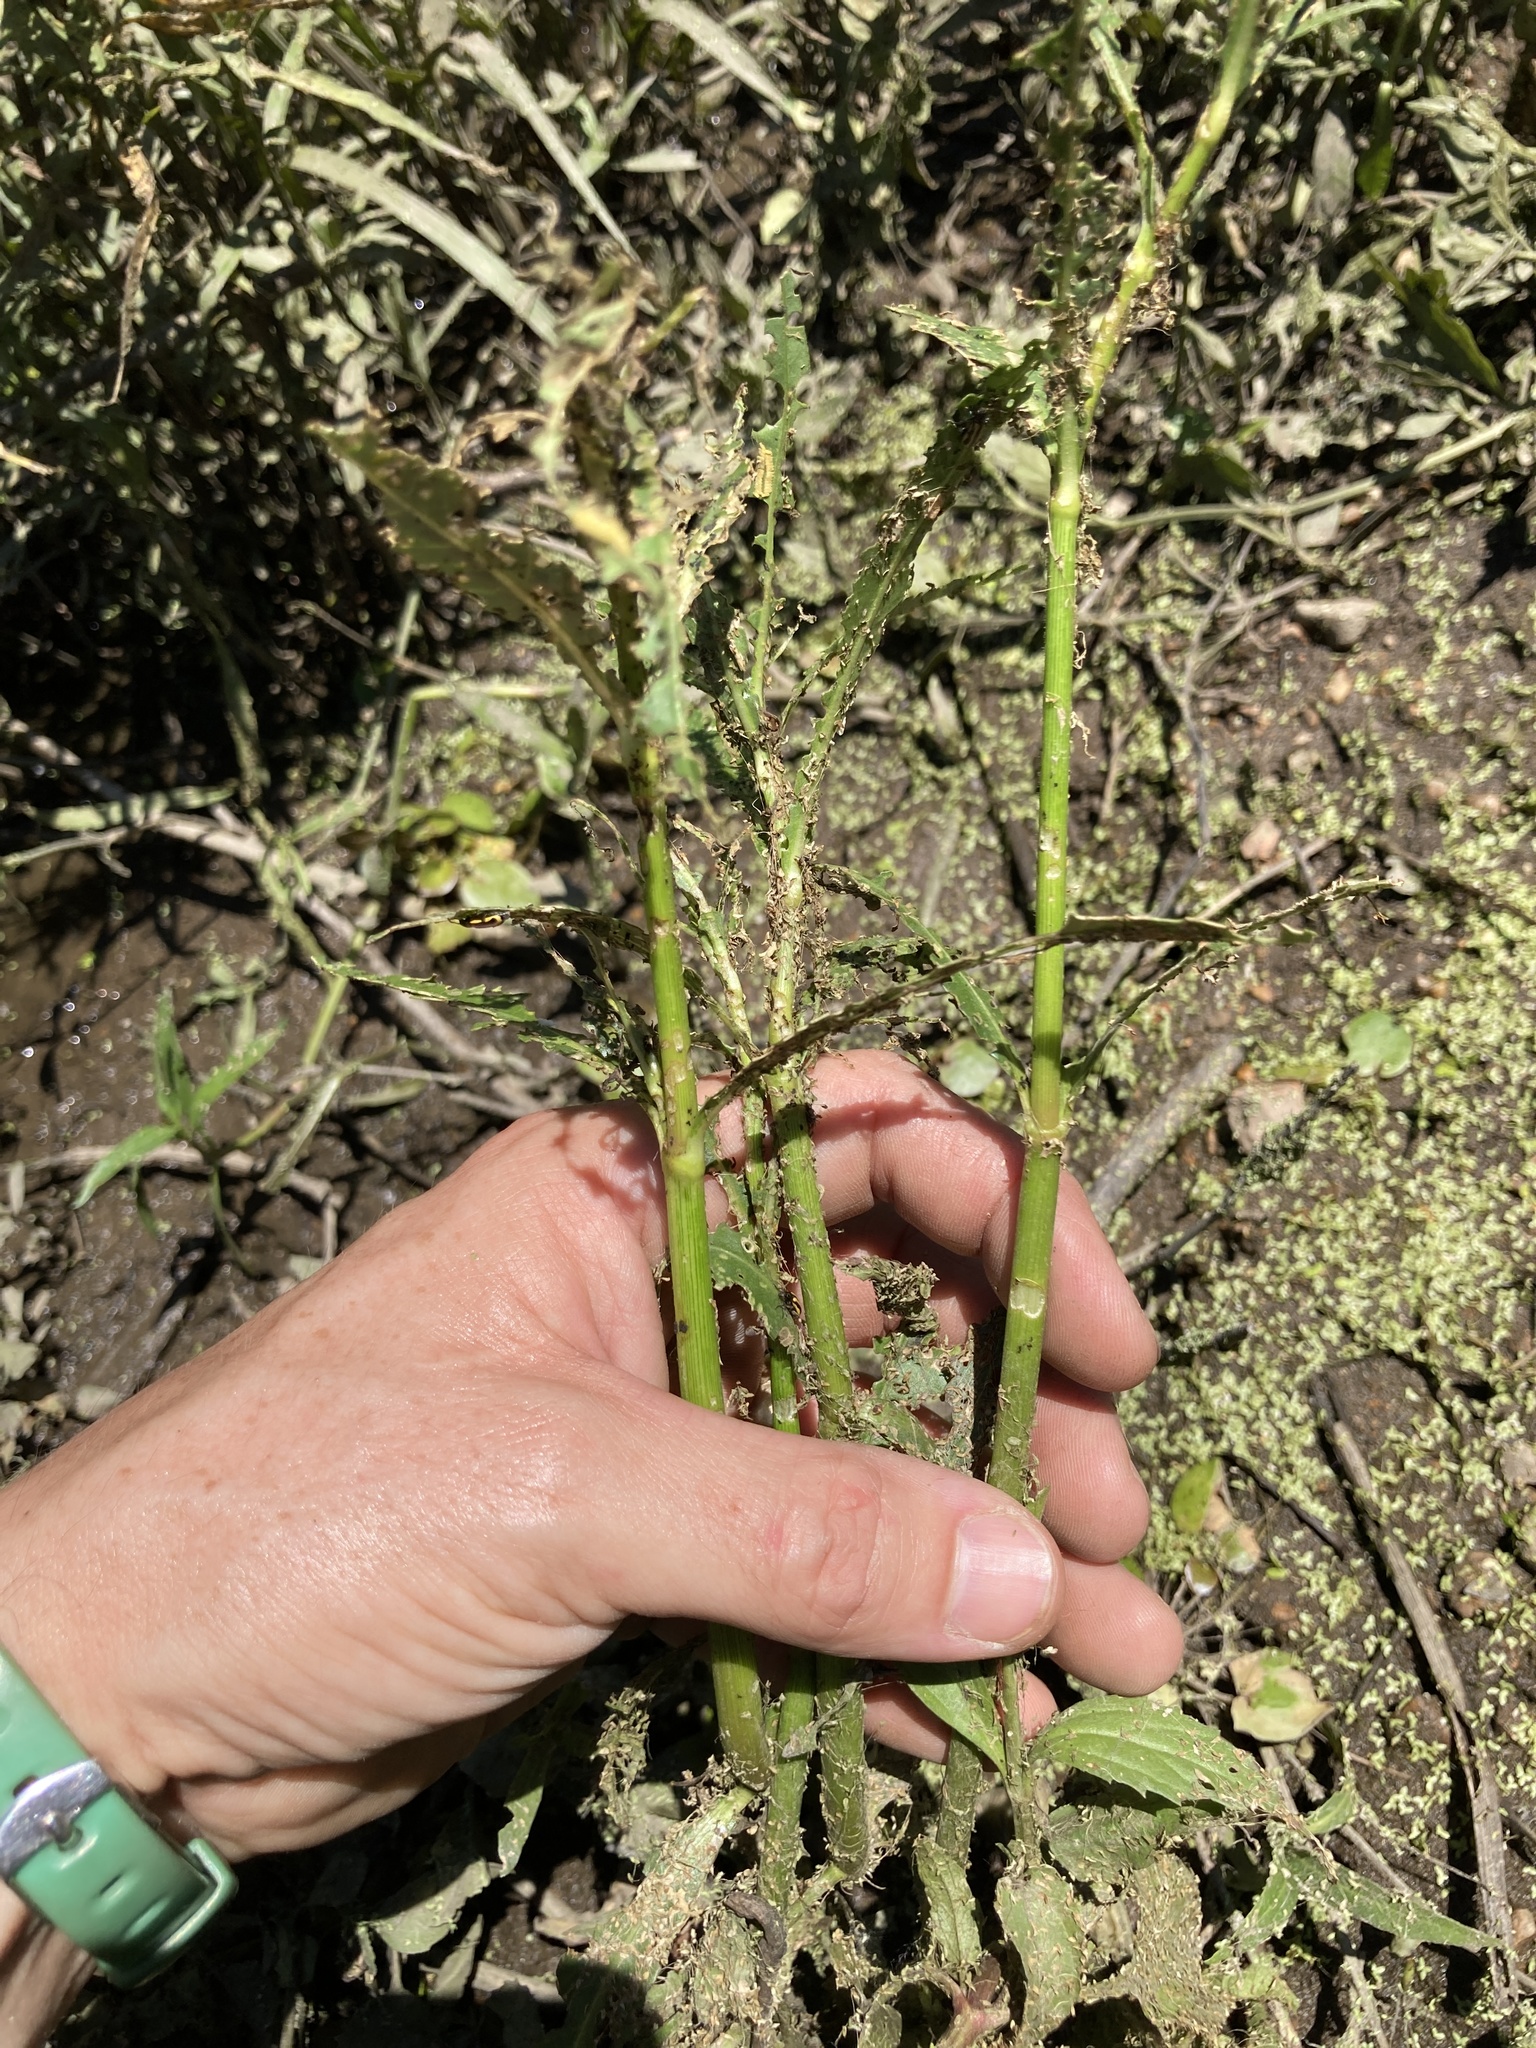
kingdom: Plantae
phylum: Tracheophyta
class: Magnoliopsida
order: Caryophyllales
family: Amaranthaceae
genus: Alternanthera
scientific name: Alternanthera philoxeroides
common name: Alligatorweed
